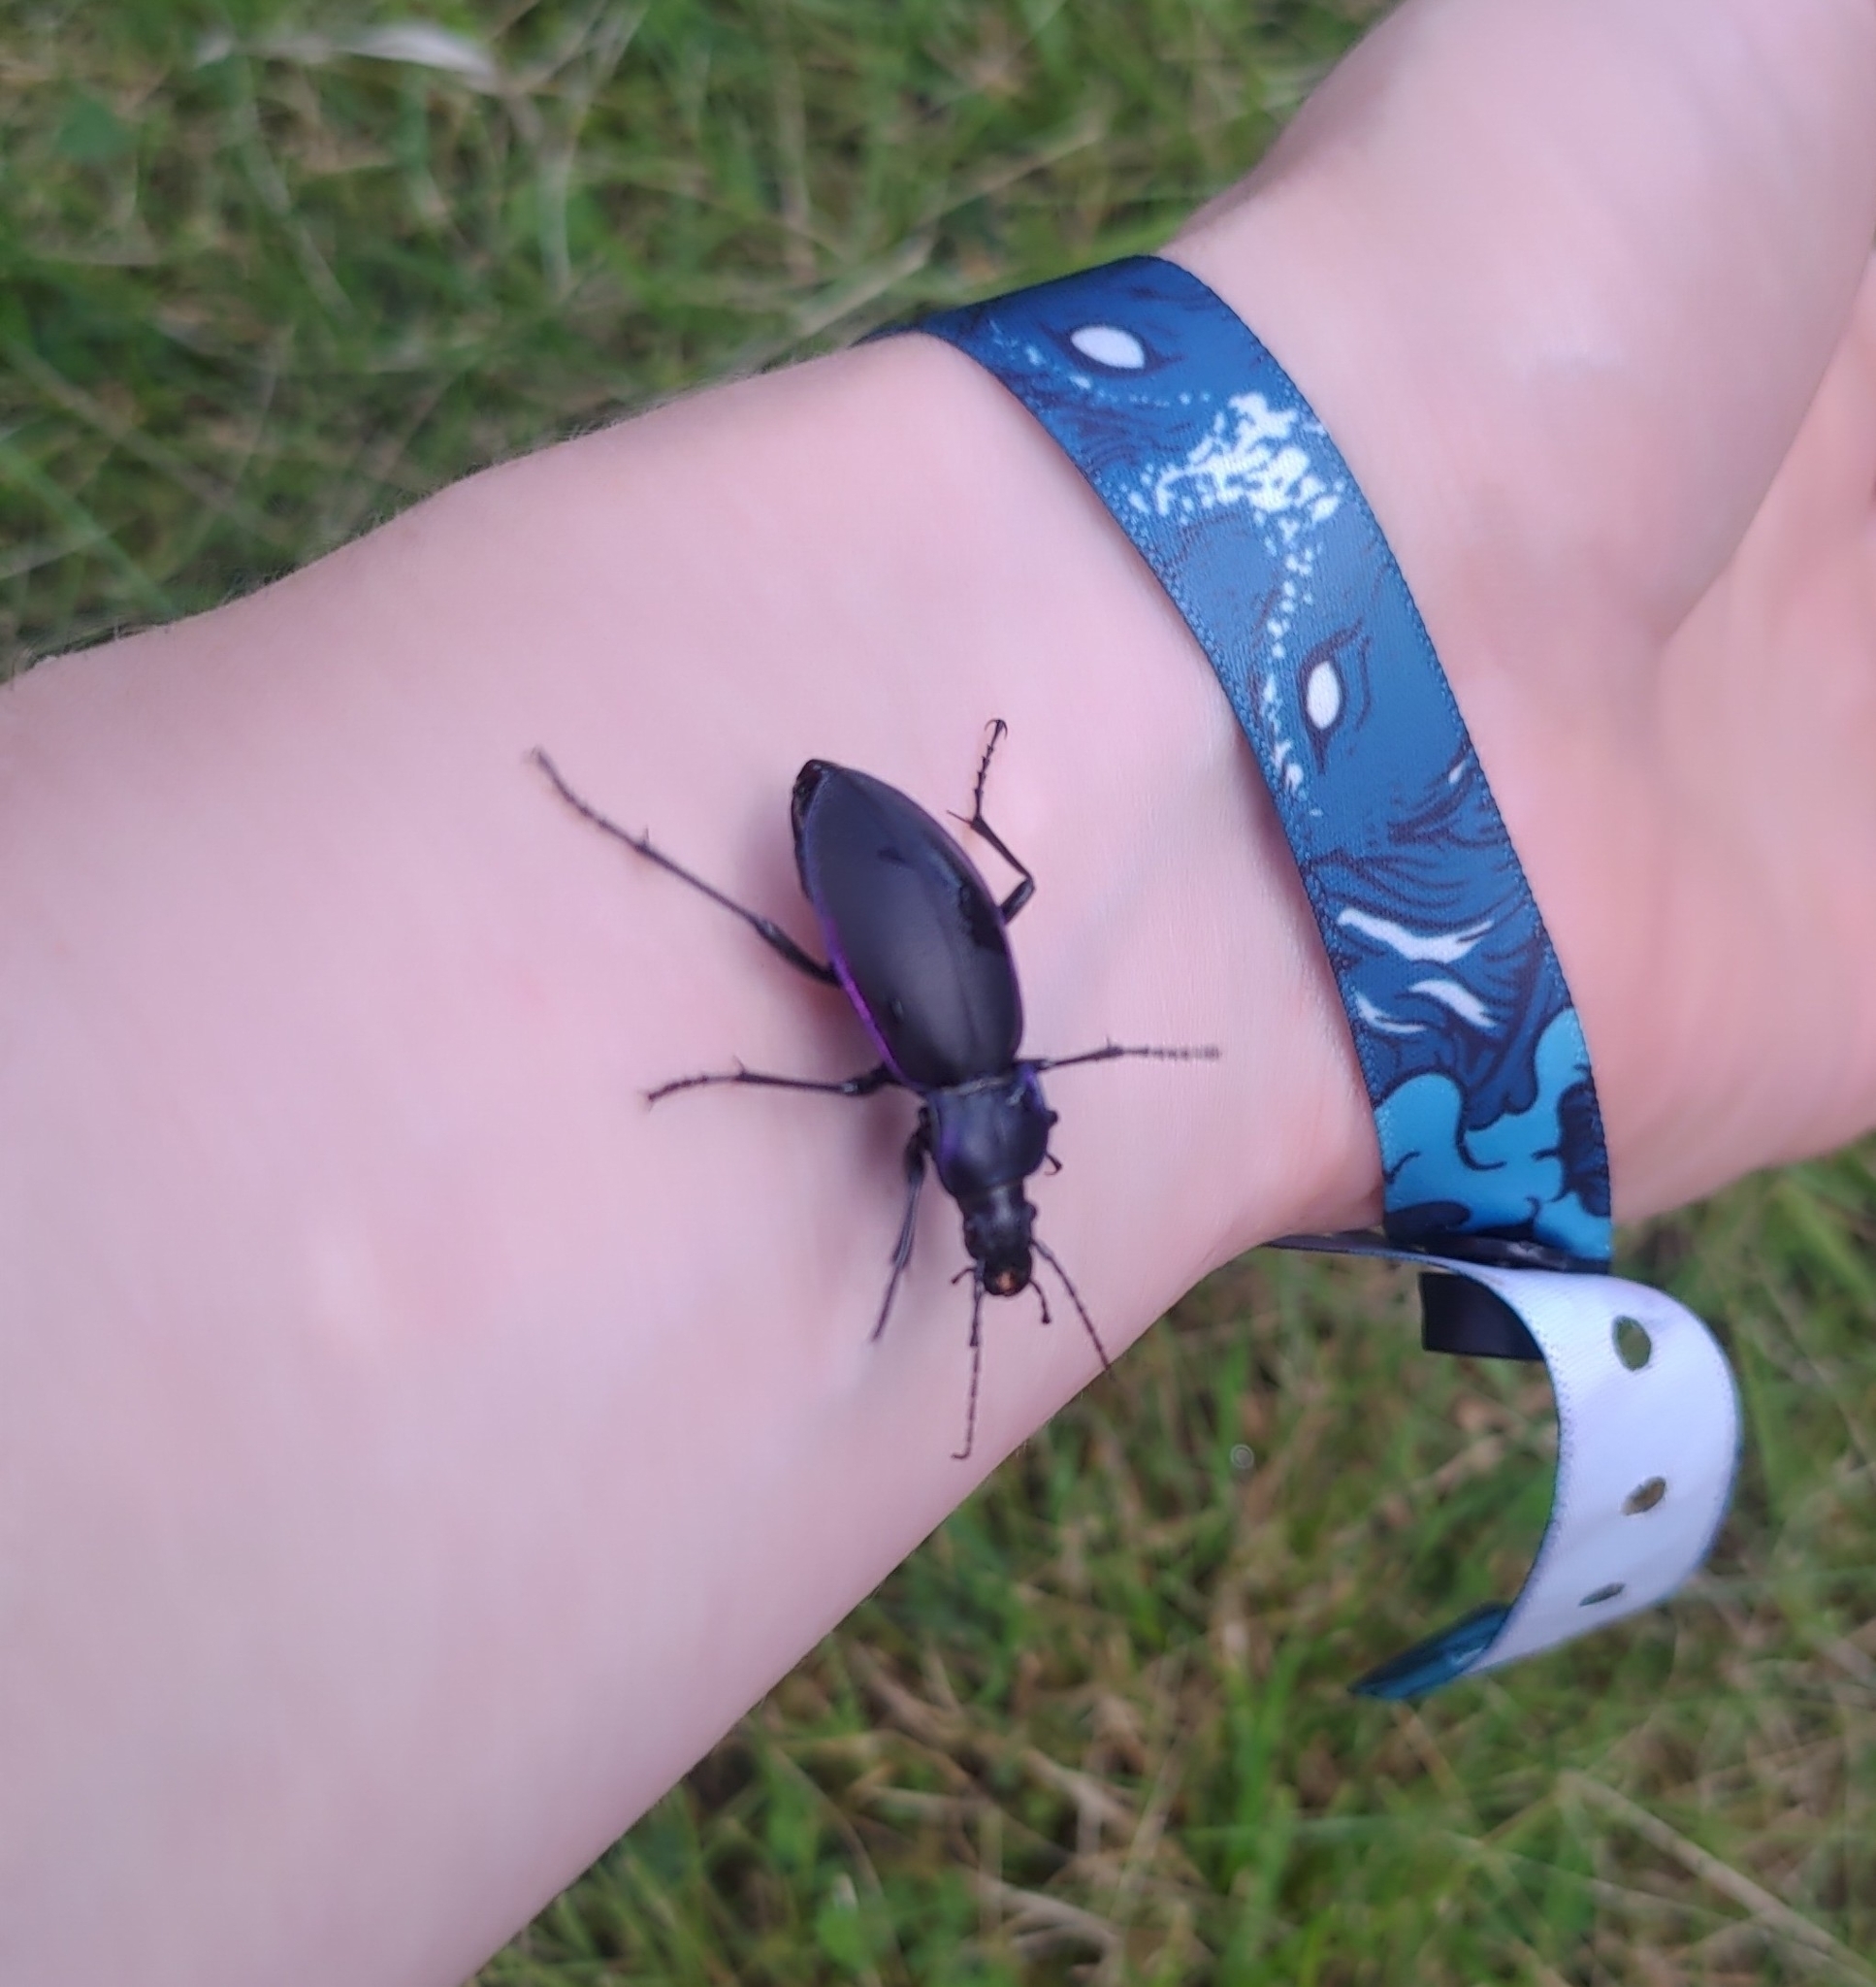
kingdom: Animalia
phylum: Arthropoda
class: Insecta
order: Coleoptera
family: Carabidae
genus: Carabus
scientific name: Carabus violaceus
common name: Violet ground beetle
